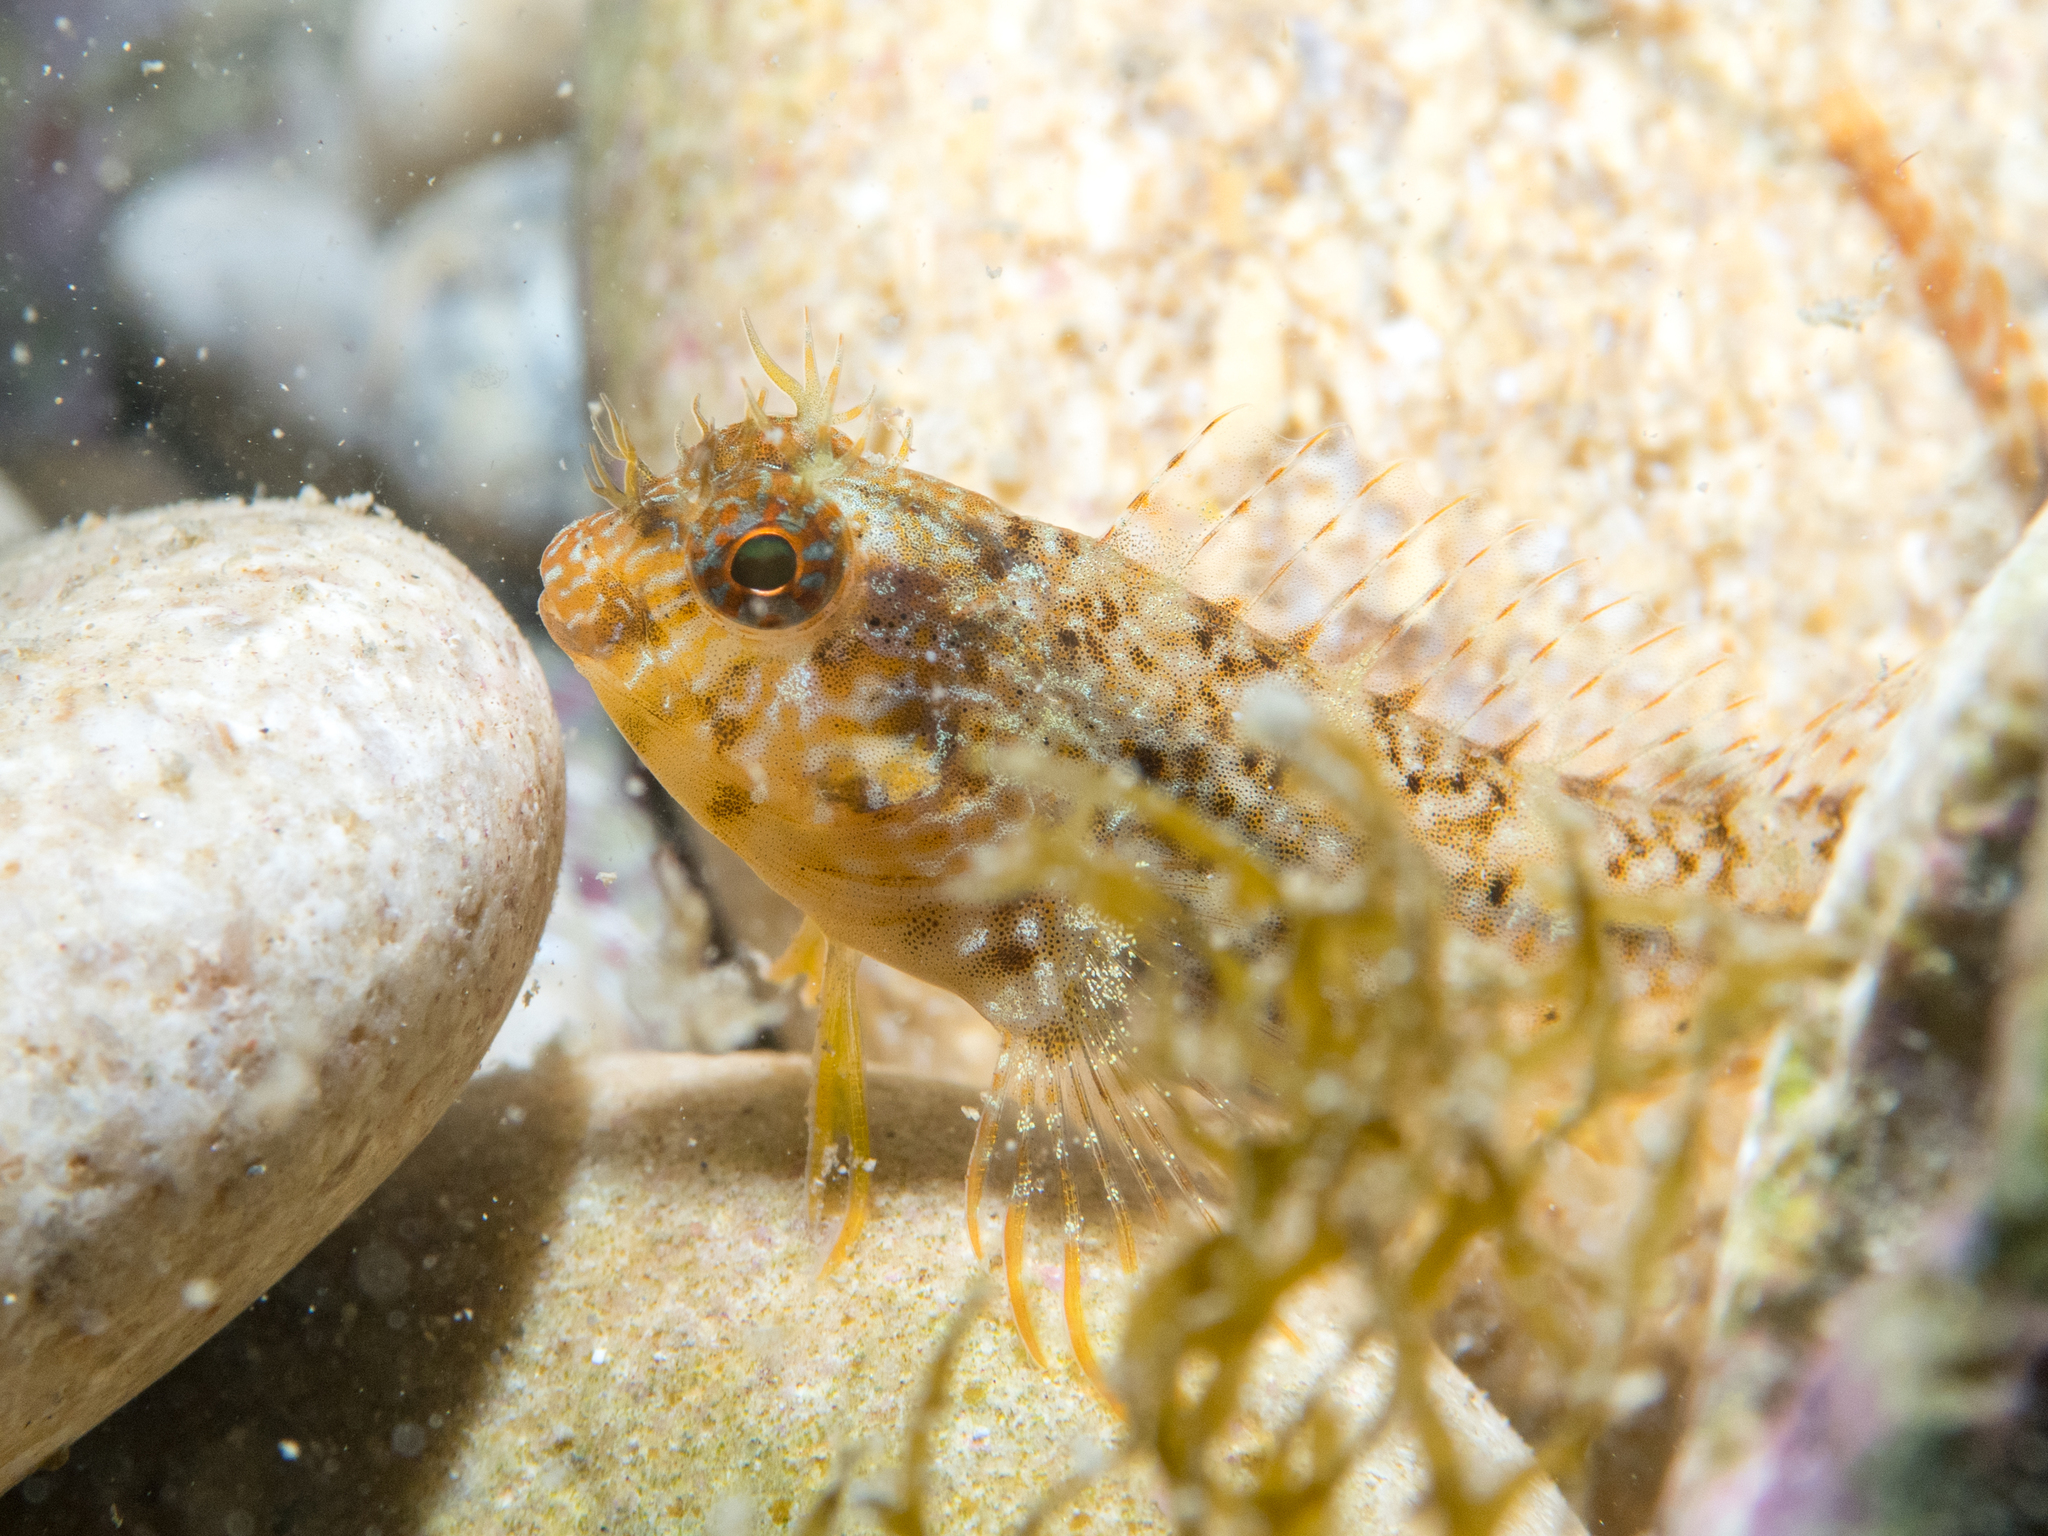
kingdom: Animalia
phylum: Chordata
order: Perciformes
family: Blenniidae
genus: Parablennius
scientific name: Parablennius zvonimiri
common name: Red blenny
